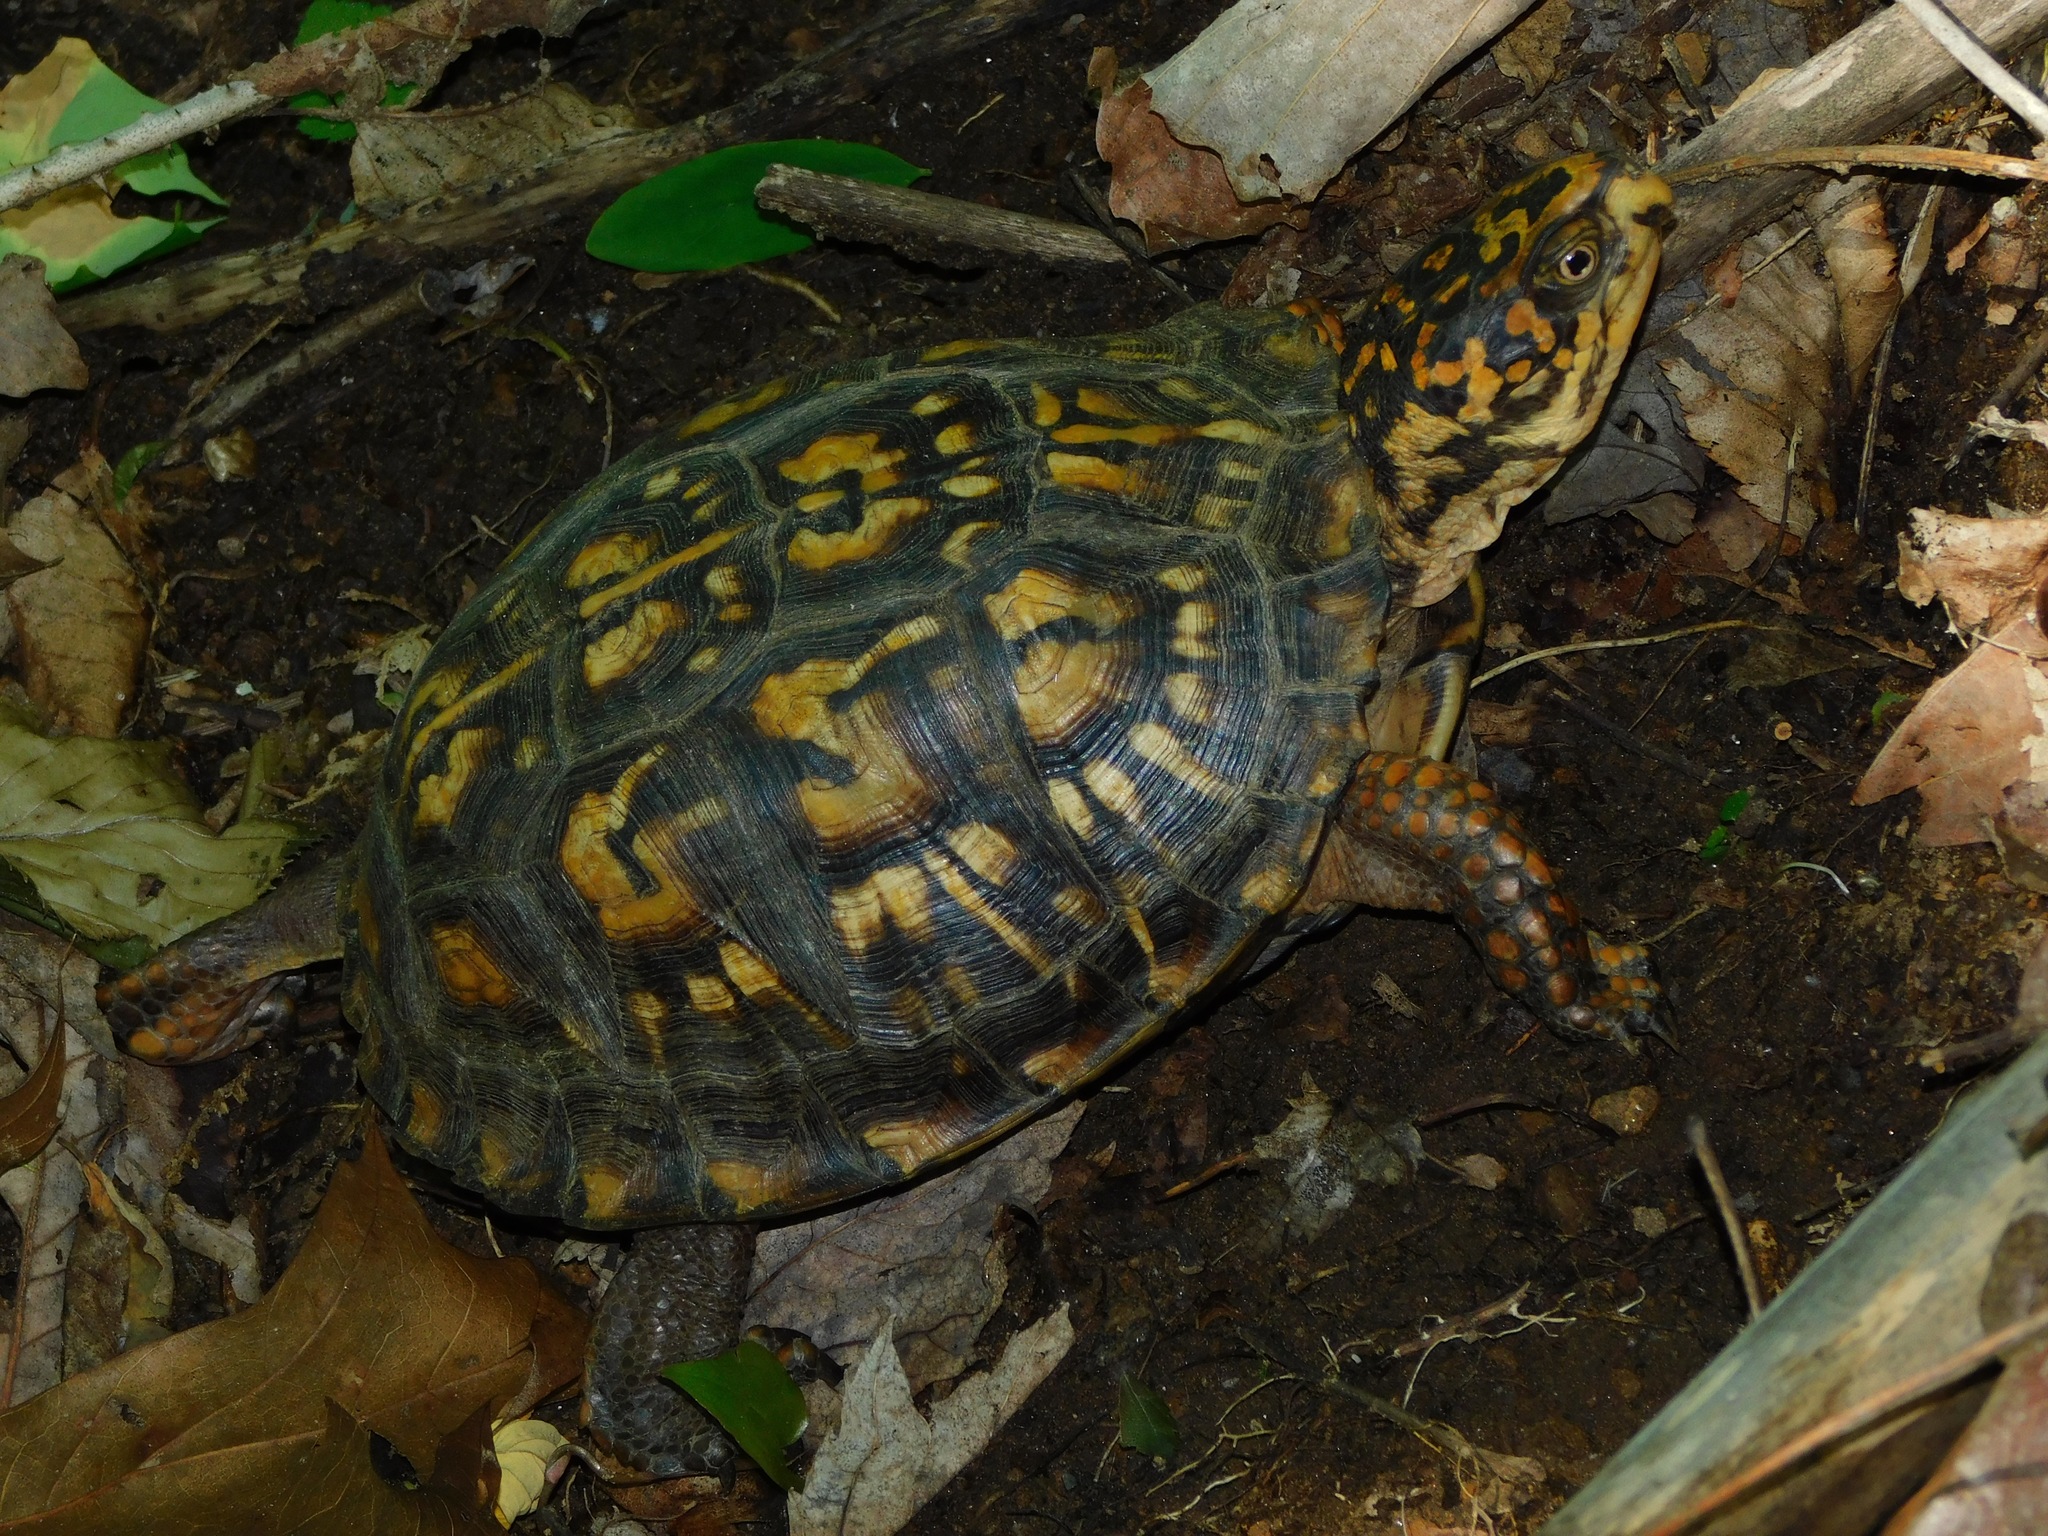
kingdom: Animalia
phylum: Chordata
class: Testudines
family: Emydidae
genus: Terrapene
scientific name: Terrapene carolina
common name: Common box turtle
